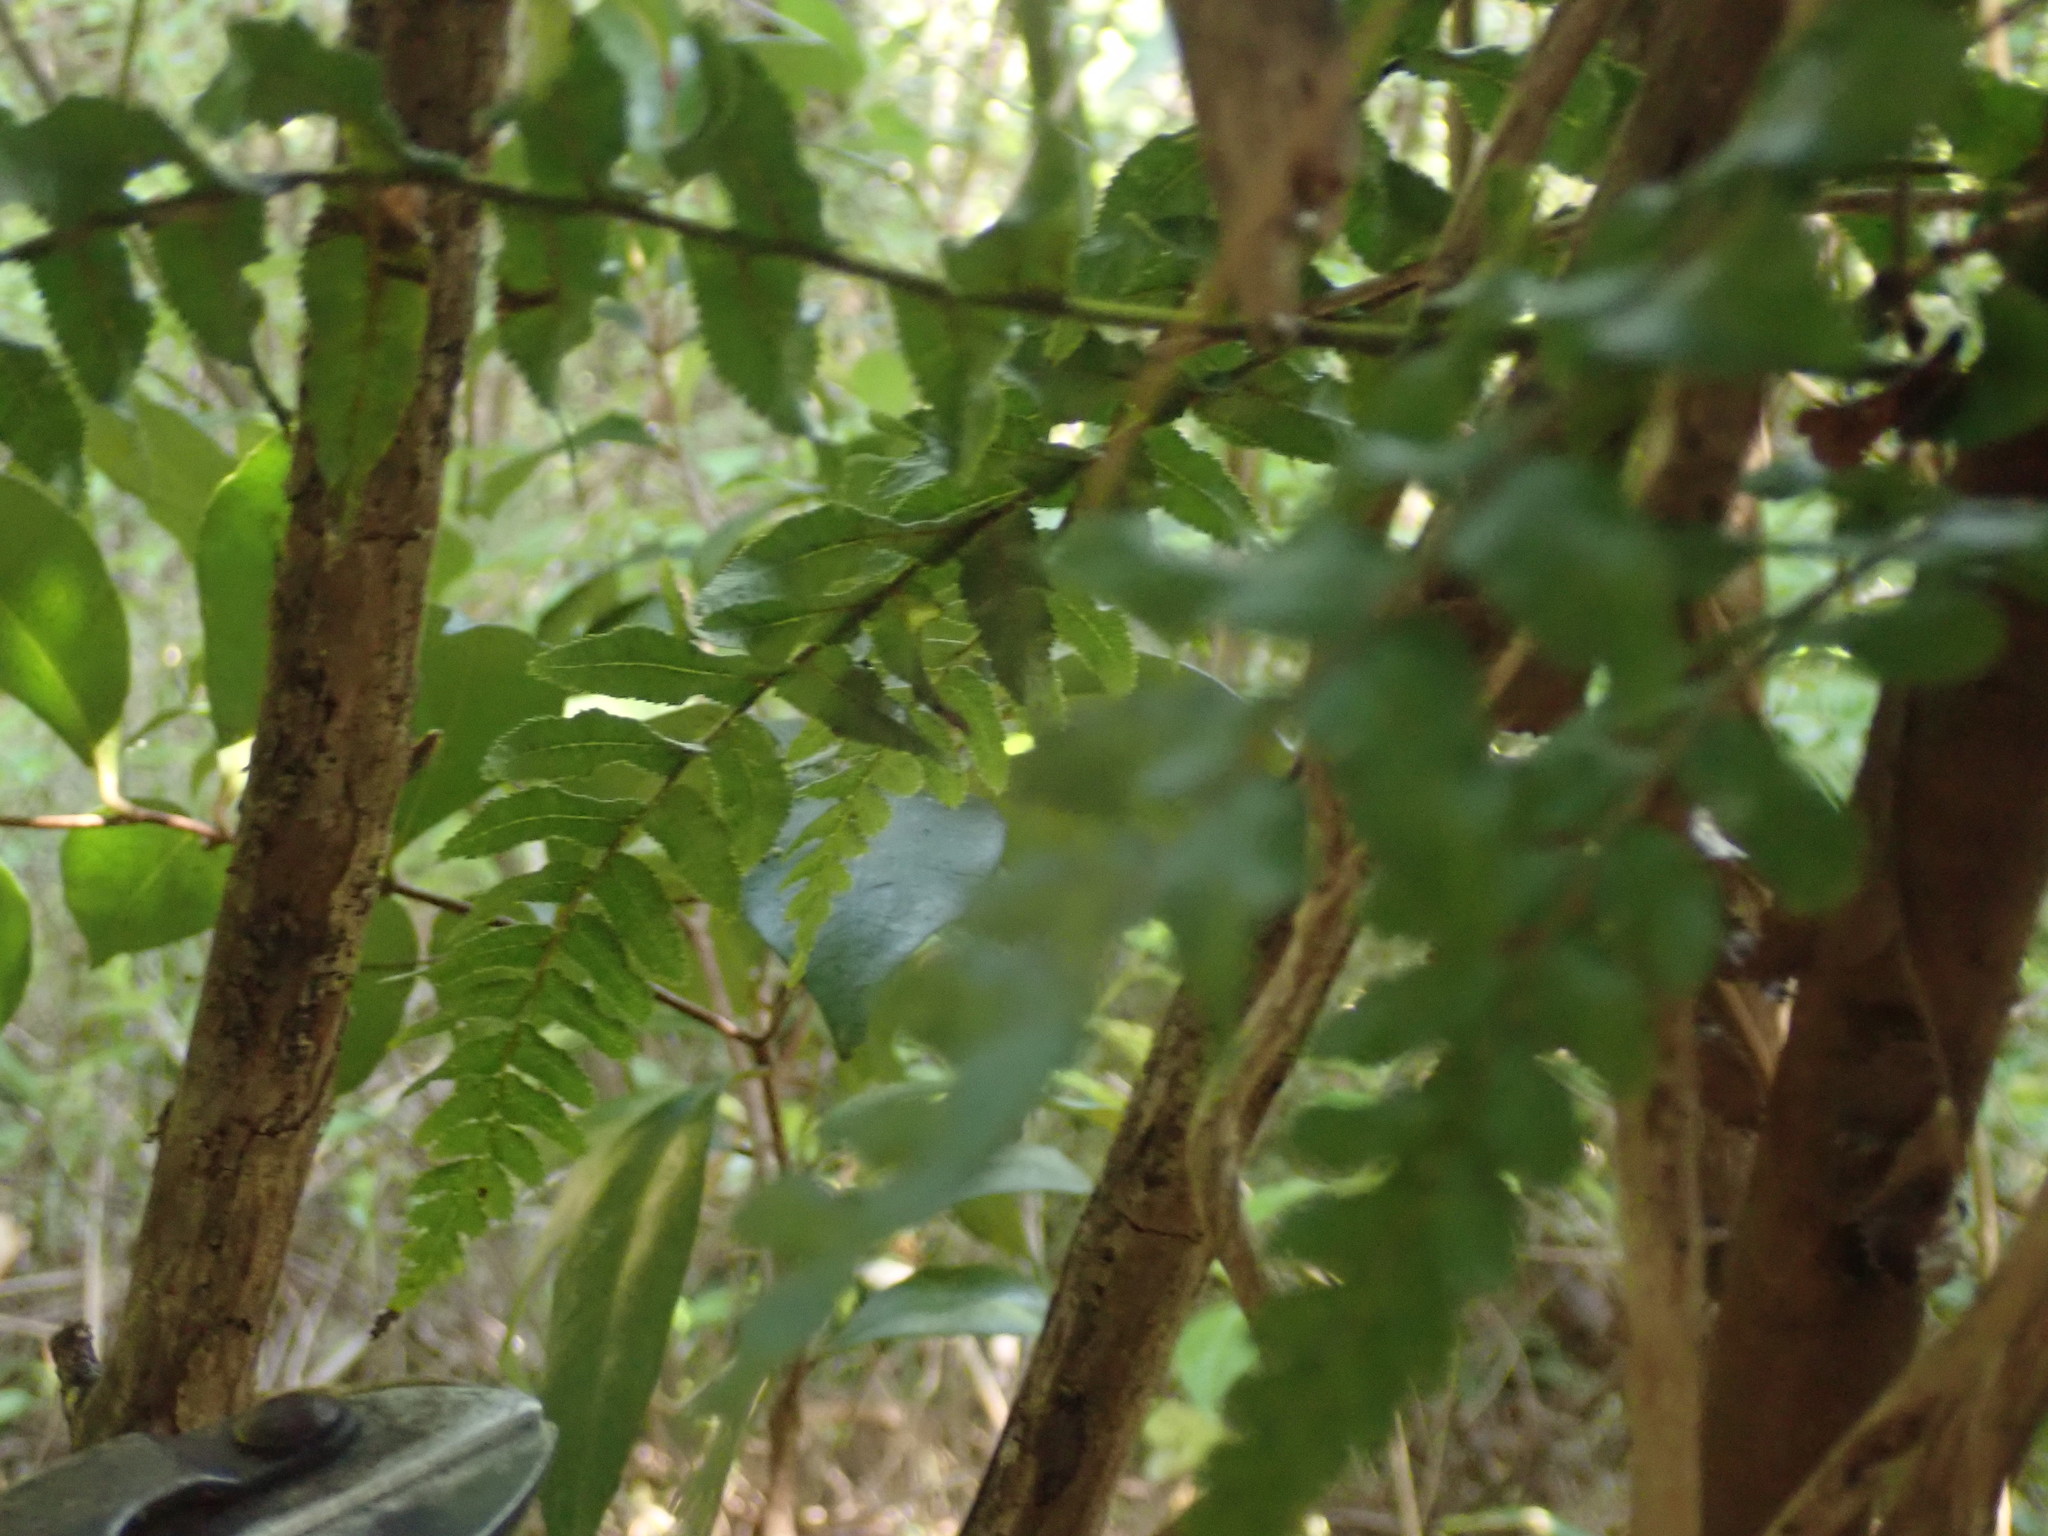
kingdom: Plantae
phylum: Tracheophyta
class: Polypodiopsida
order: Polypodiales
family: Blechnaceae
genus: Icarus
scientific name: Icarus filiformis
